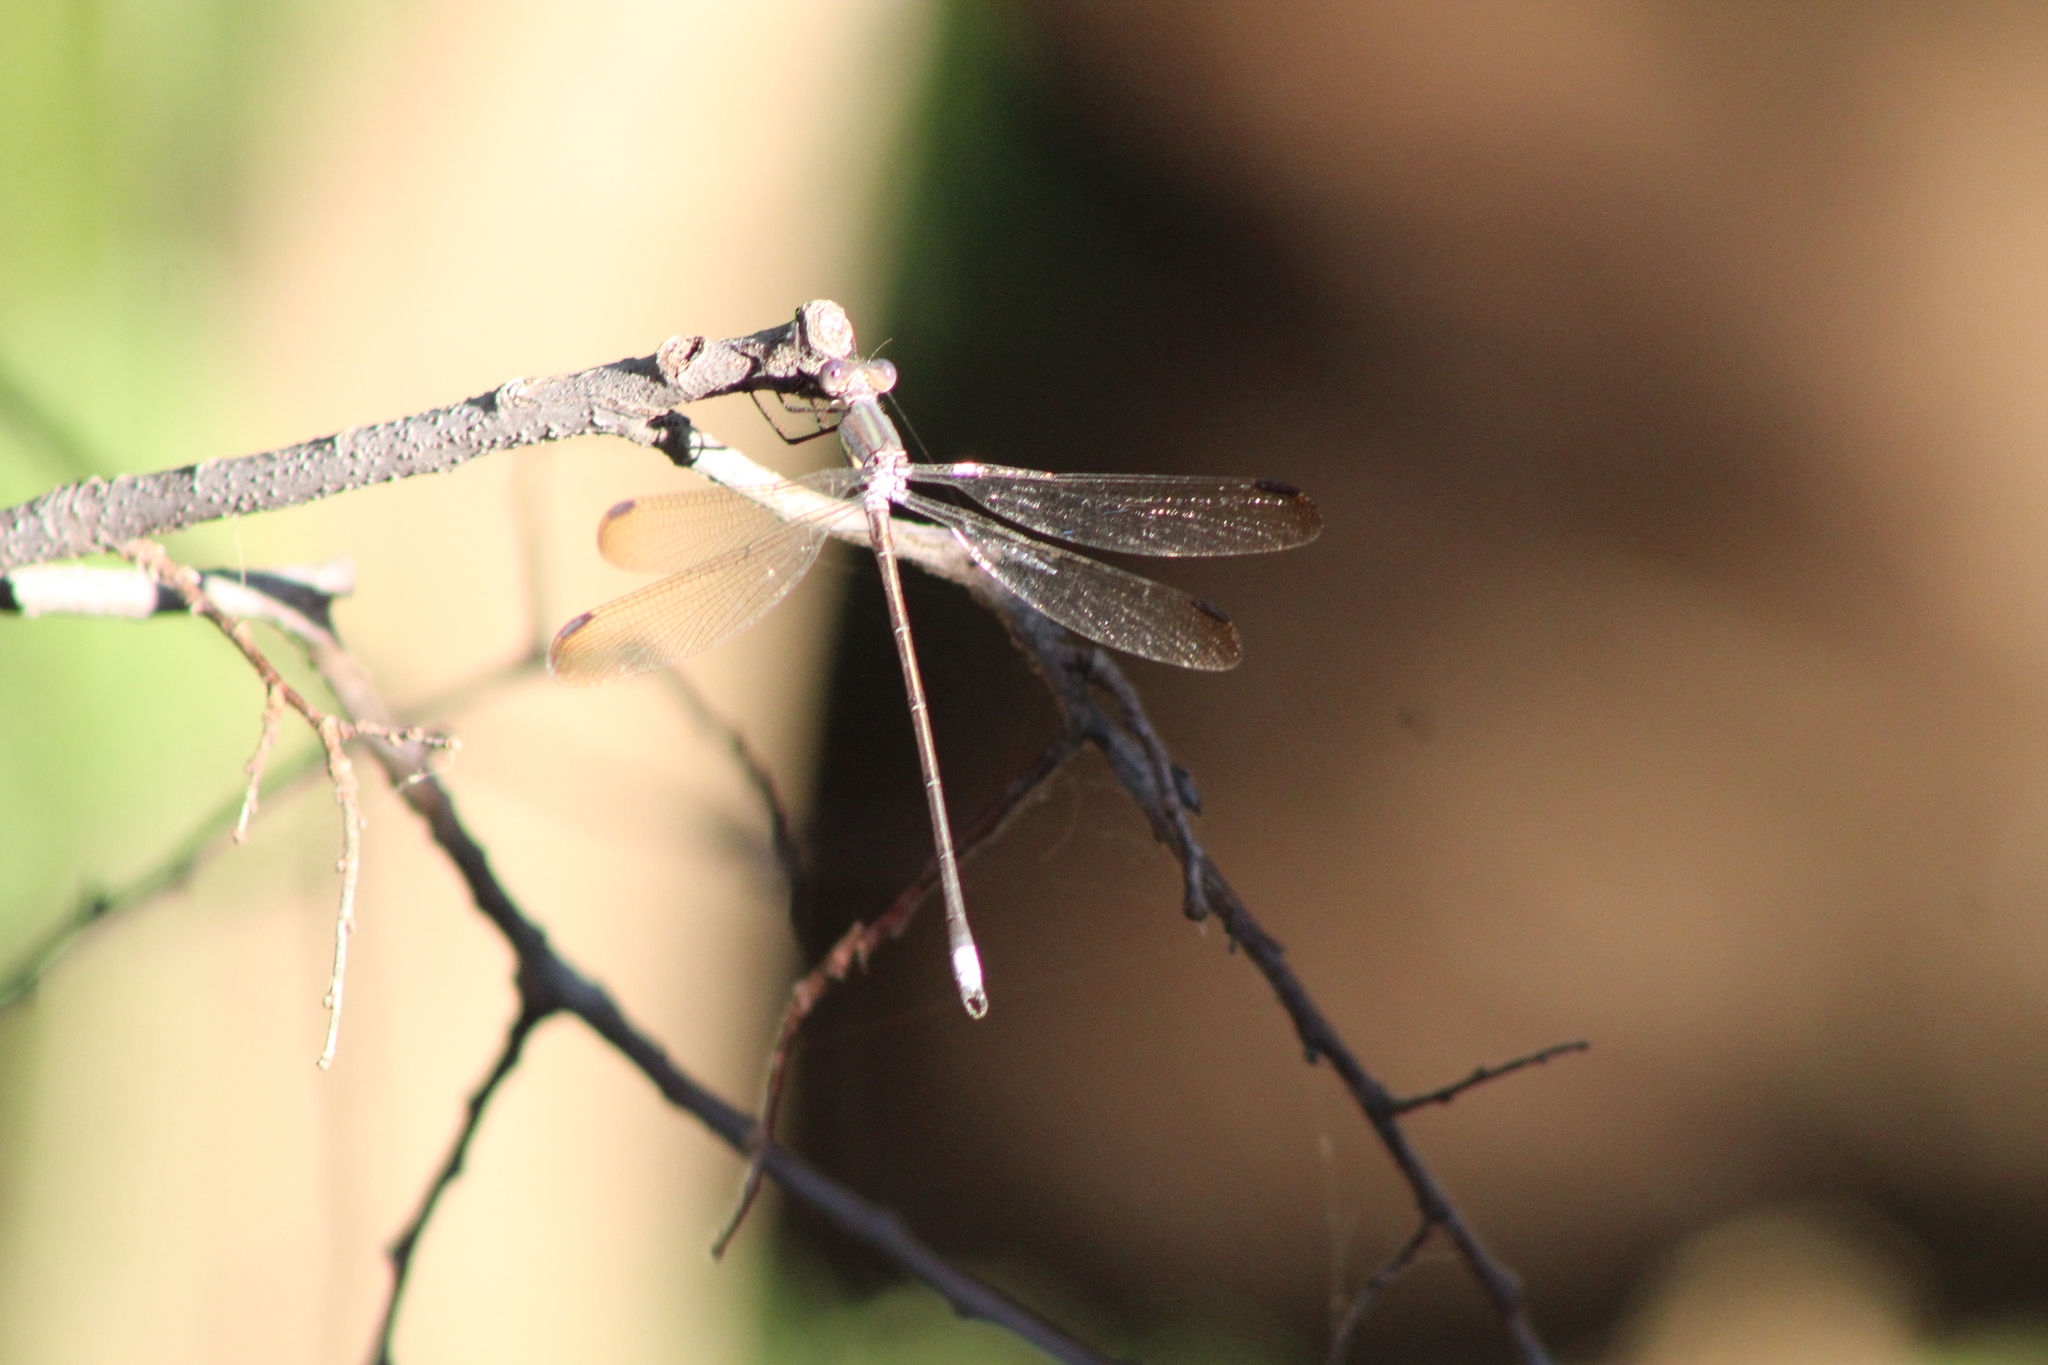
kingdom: Animalia
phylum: Arthropoda
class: Insecta
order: Odonata
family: Lestidae
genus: Archilestes
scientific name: Archilestes grandis
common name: Great spreadwing
